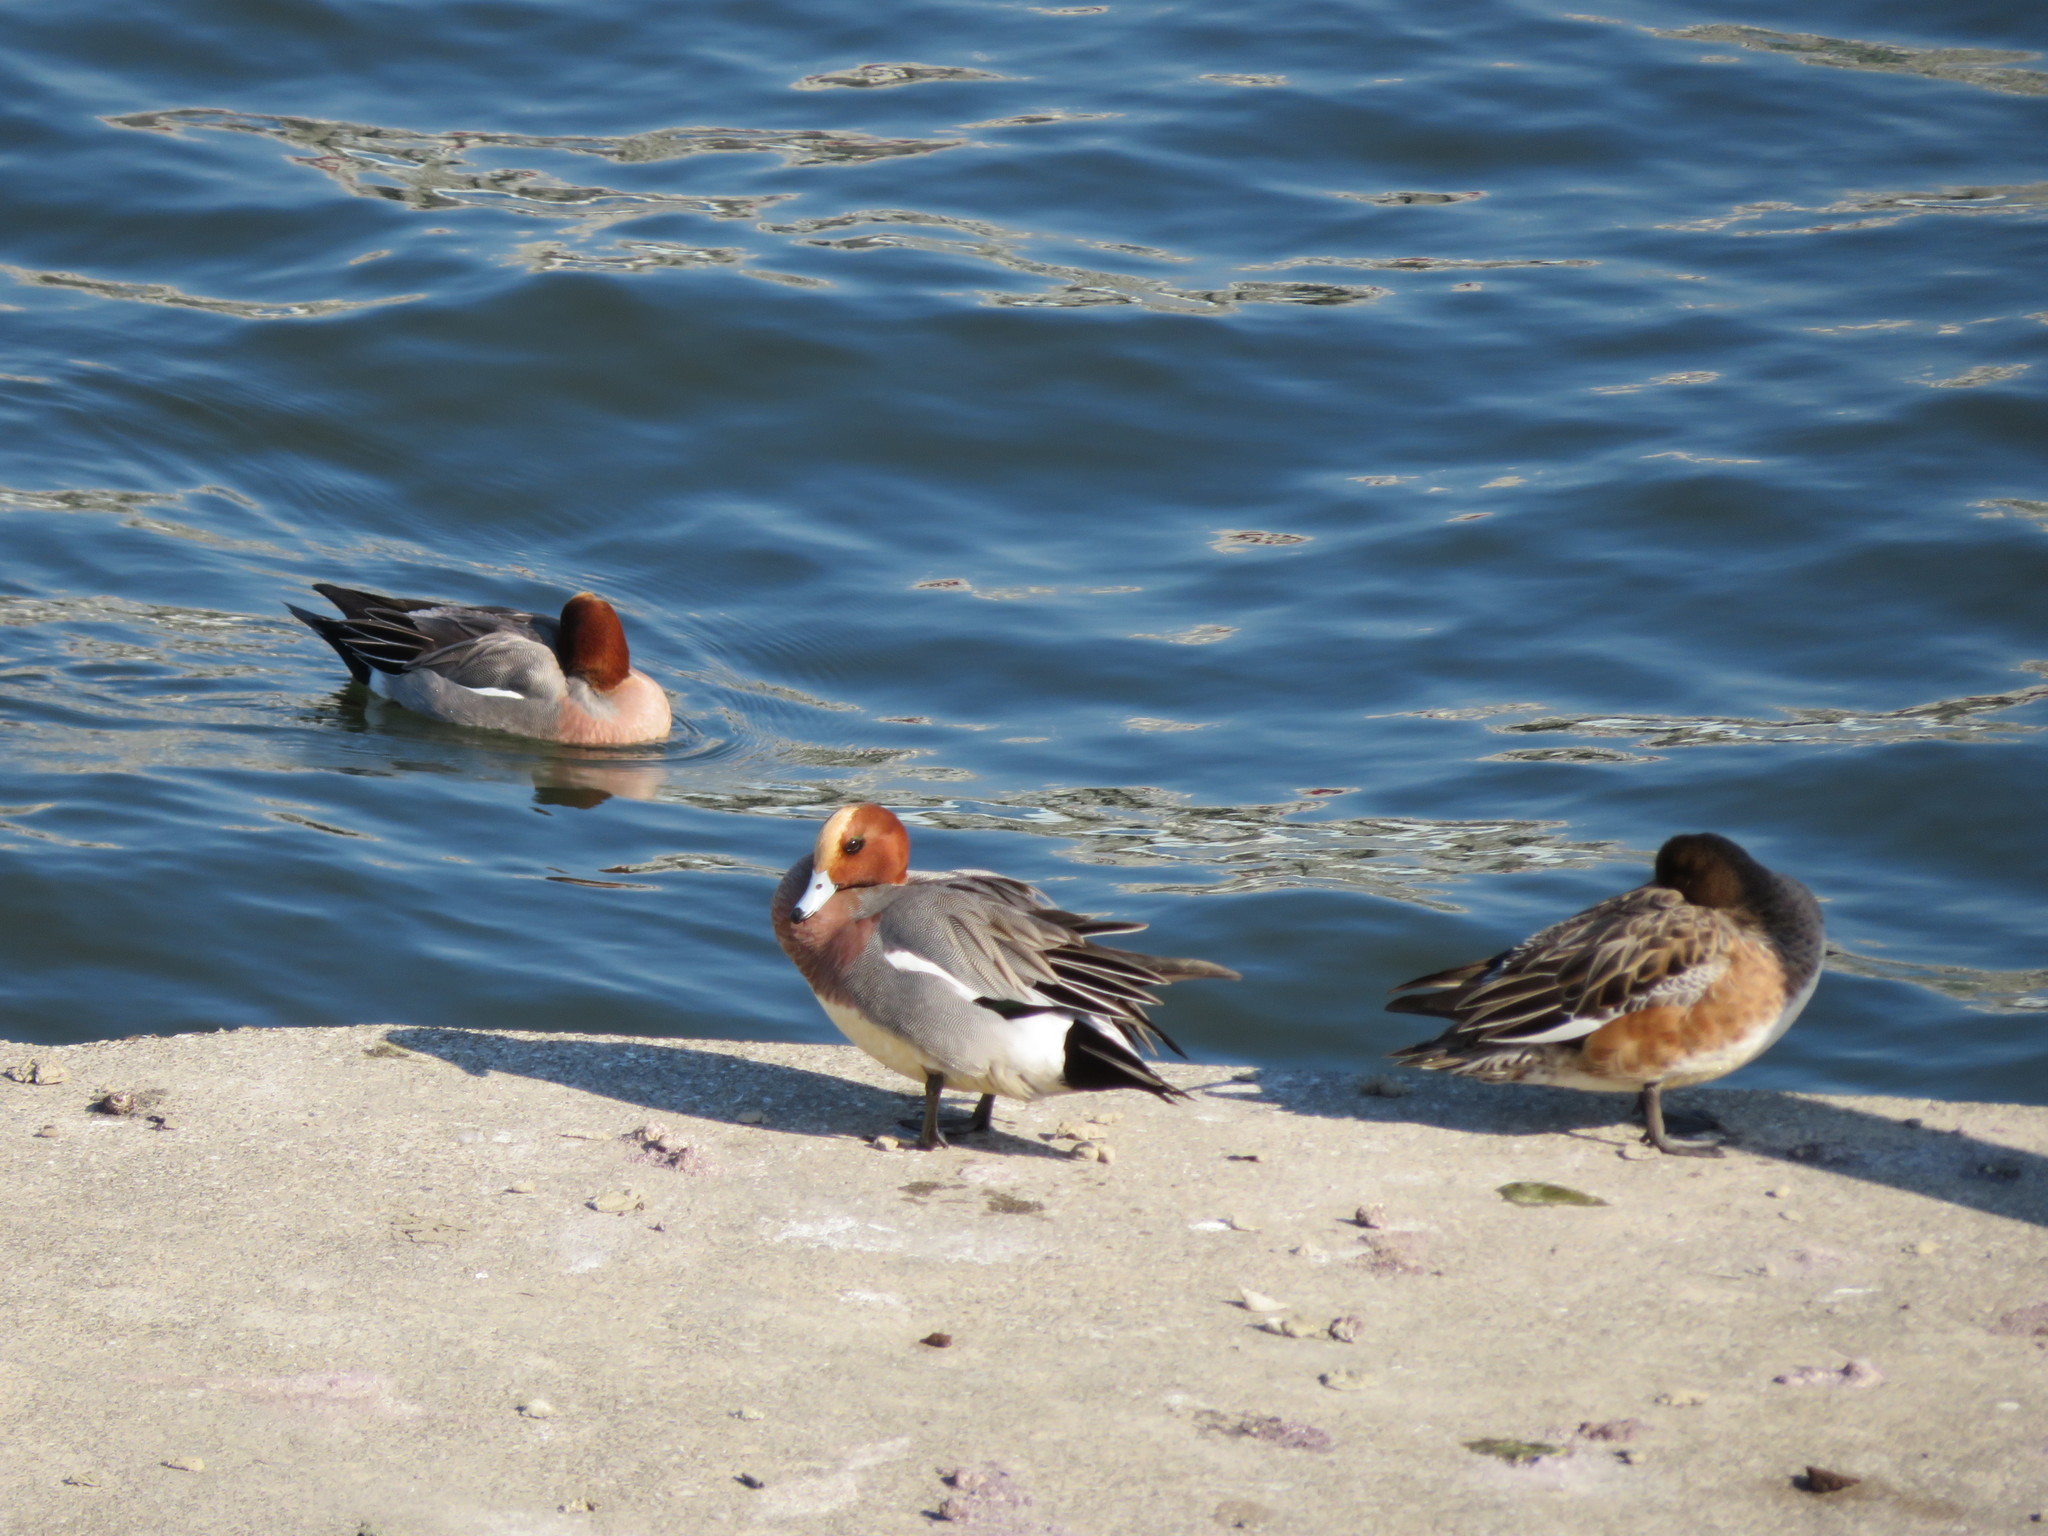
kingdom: Animalia
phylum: Chordata
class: Aves
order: Anseriformes
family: Anatidae
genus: Mareca
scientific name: Mareca penelope
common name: Eurasian wigeon
